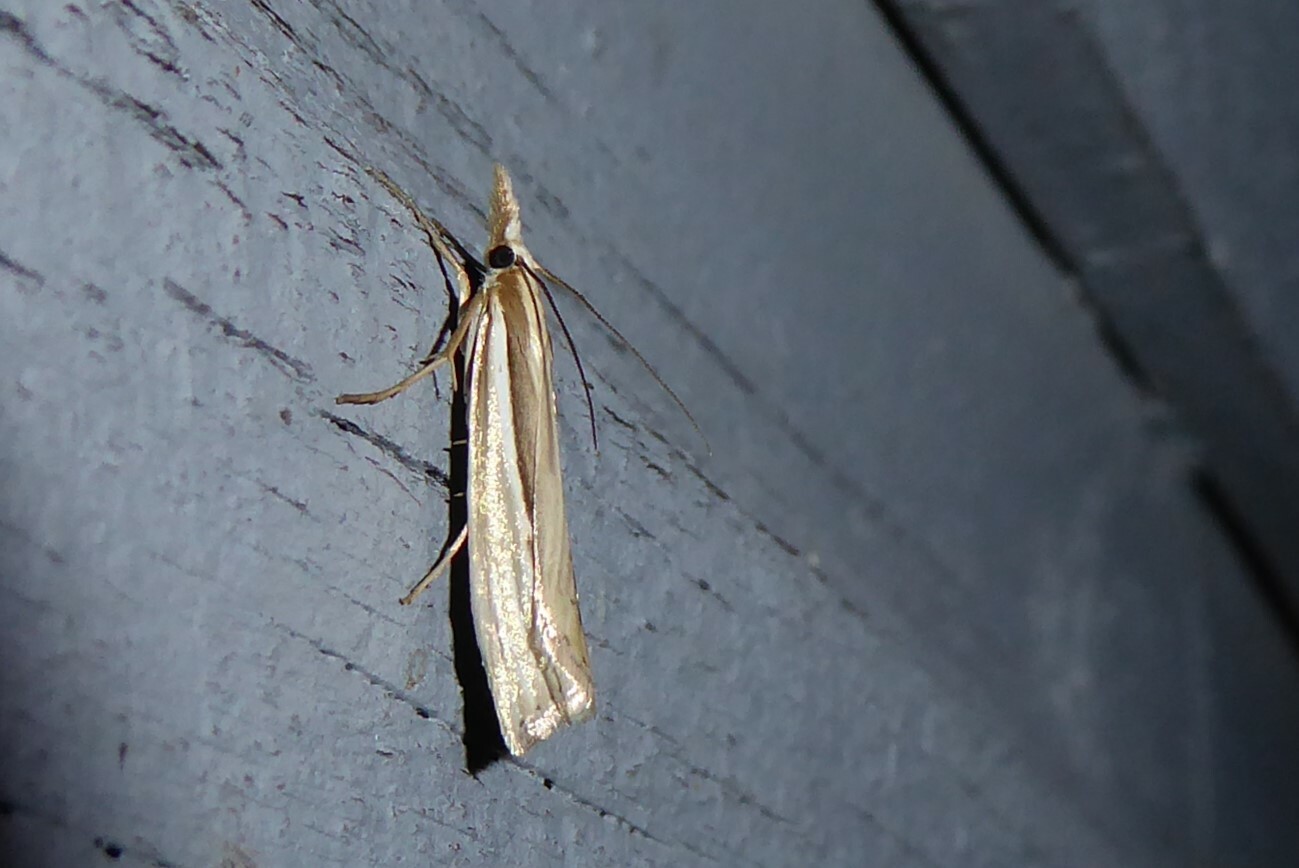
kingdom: Animalia
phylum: Arthropoda
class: Insecta
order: Lepidoptera
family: Crambidae
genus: Orocrambus
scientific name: Orocrambus ramosellus
